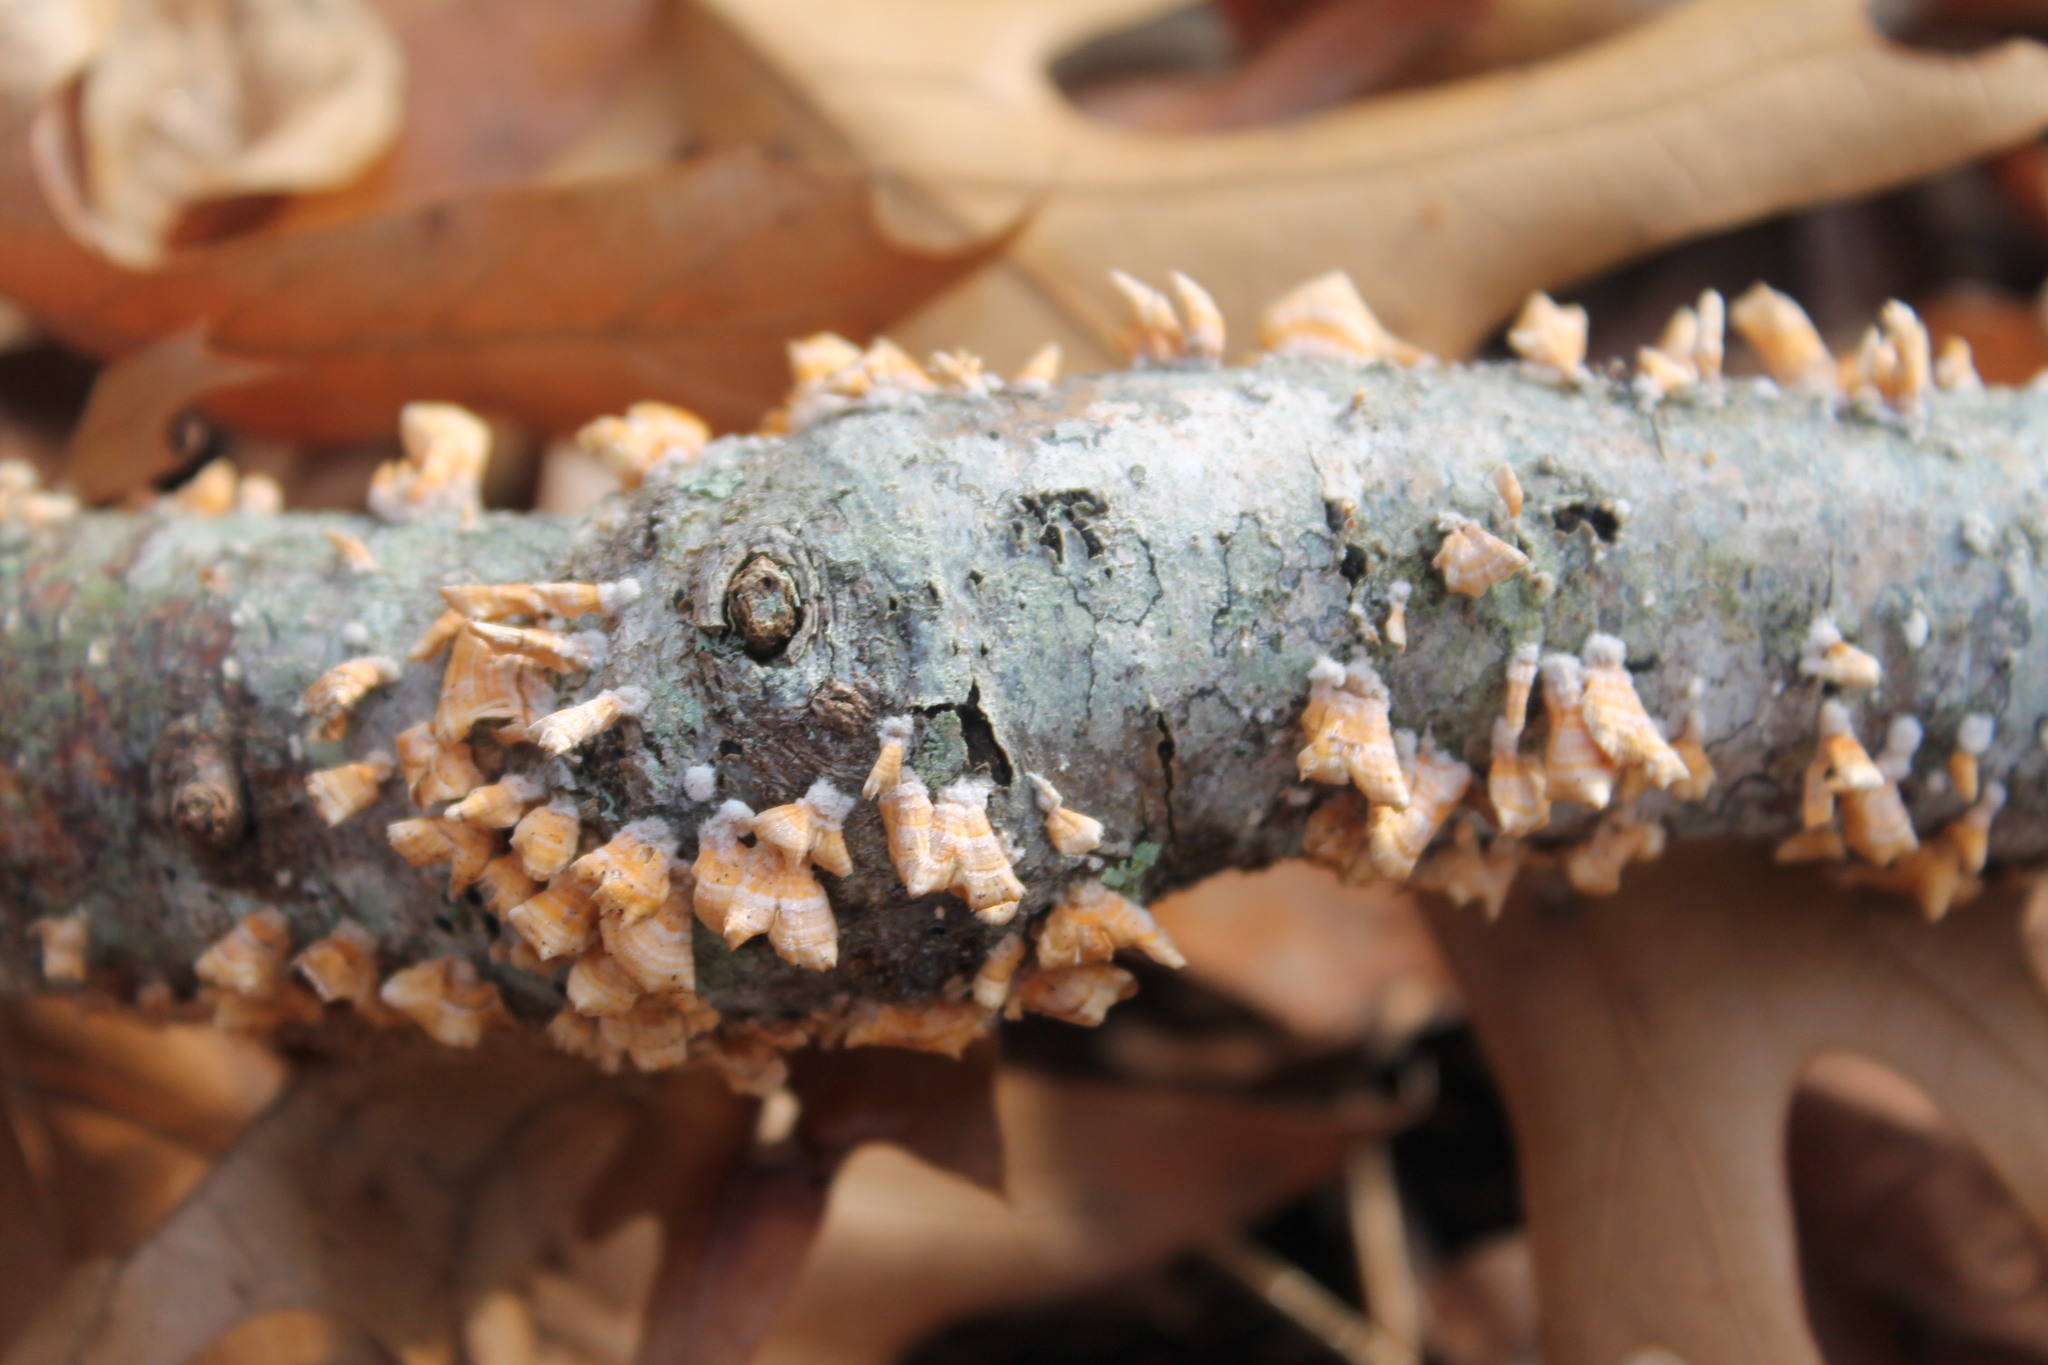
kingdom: Fungi
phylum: Basidiomycota
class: Agaricomycetes
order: Russulales
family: Stereaceae
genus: Stereum
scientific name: Stereum complicatum
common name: Crowded parchment
